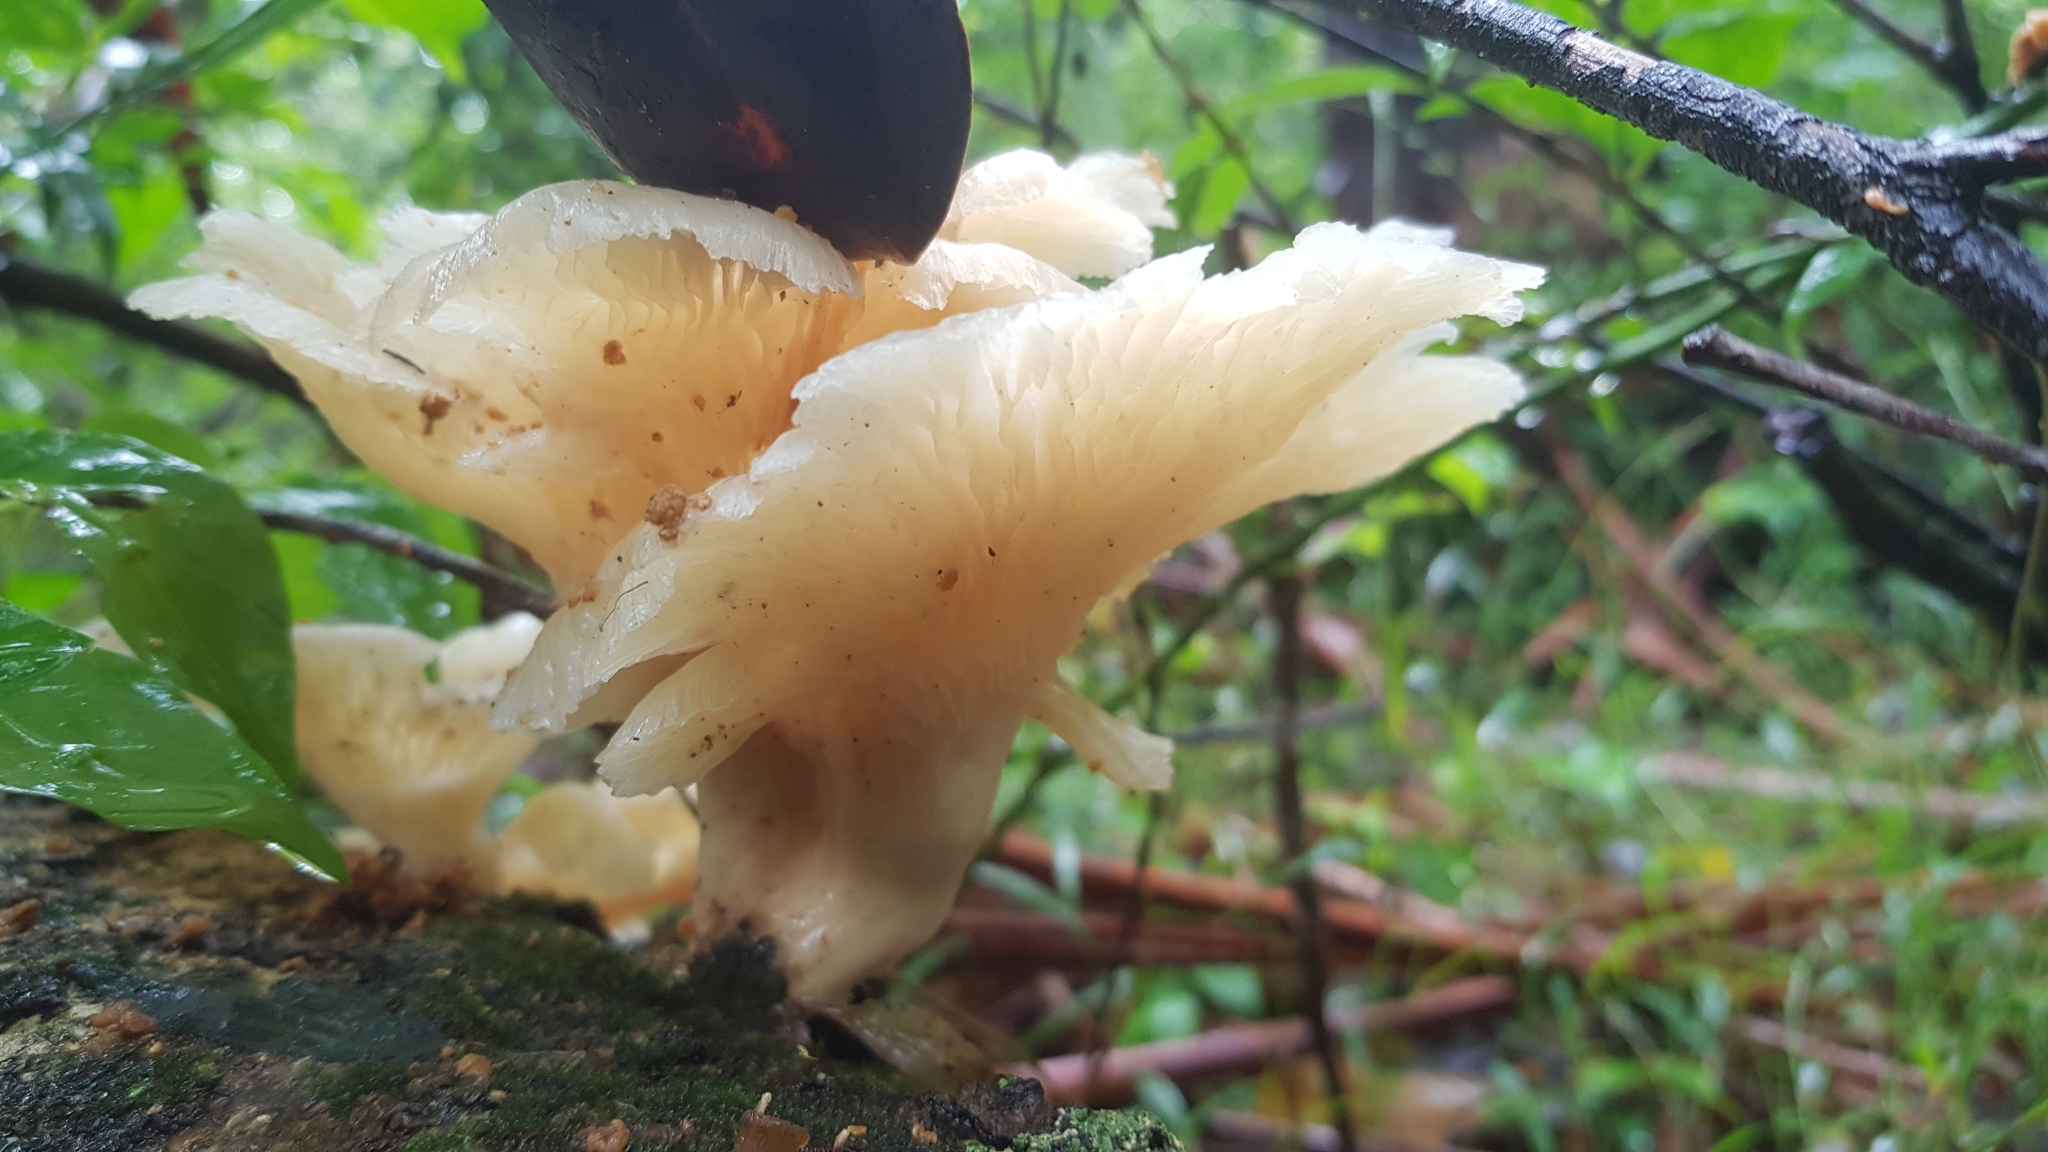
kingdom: Fungi
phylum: Basidiomycota
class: Agaricomycetes
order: Agaricales
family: Omphalotaceae
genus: Omphalotus
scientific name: Omphalotus nidiformis
